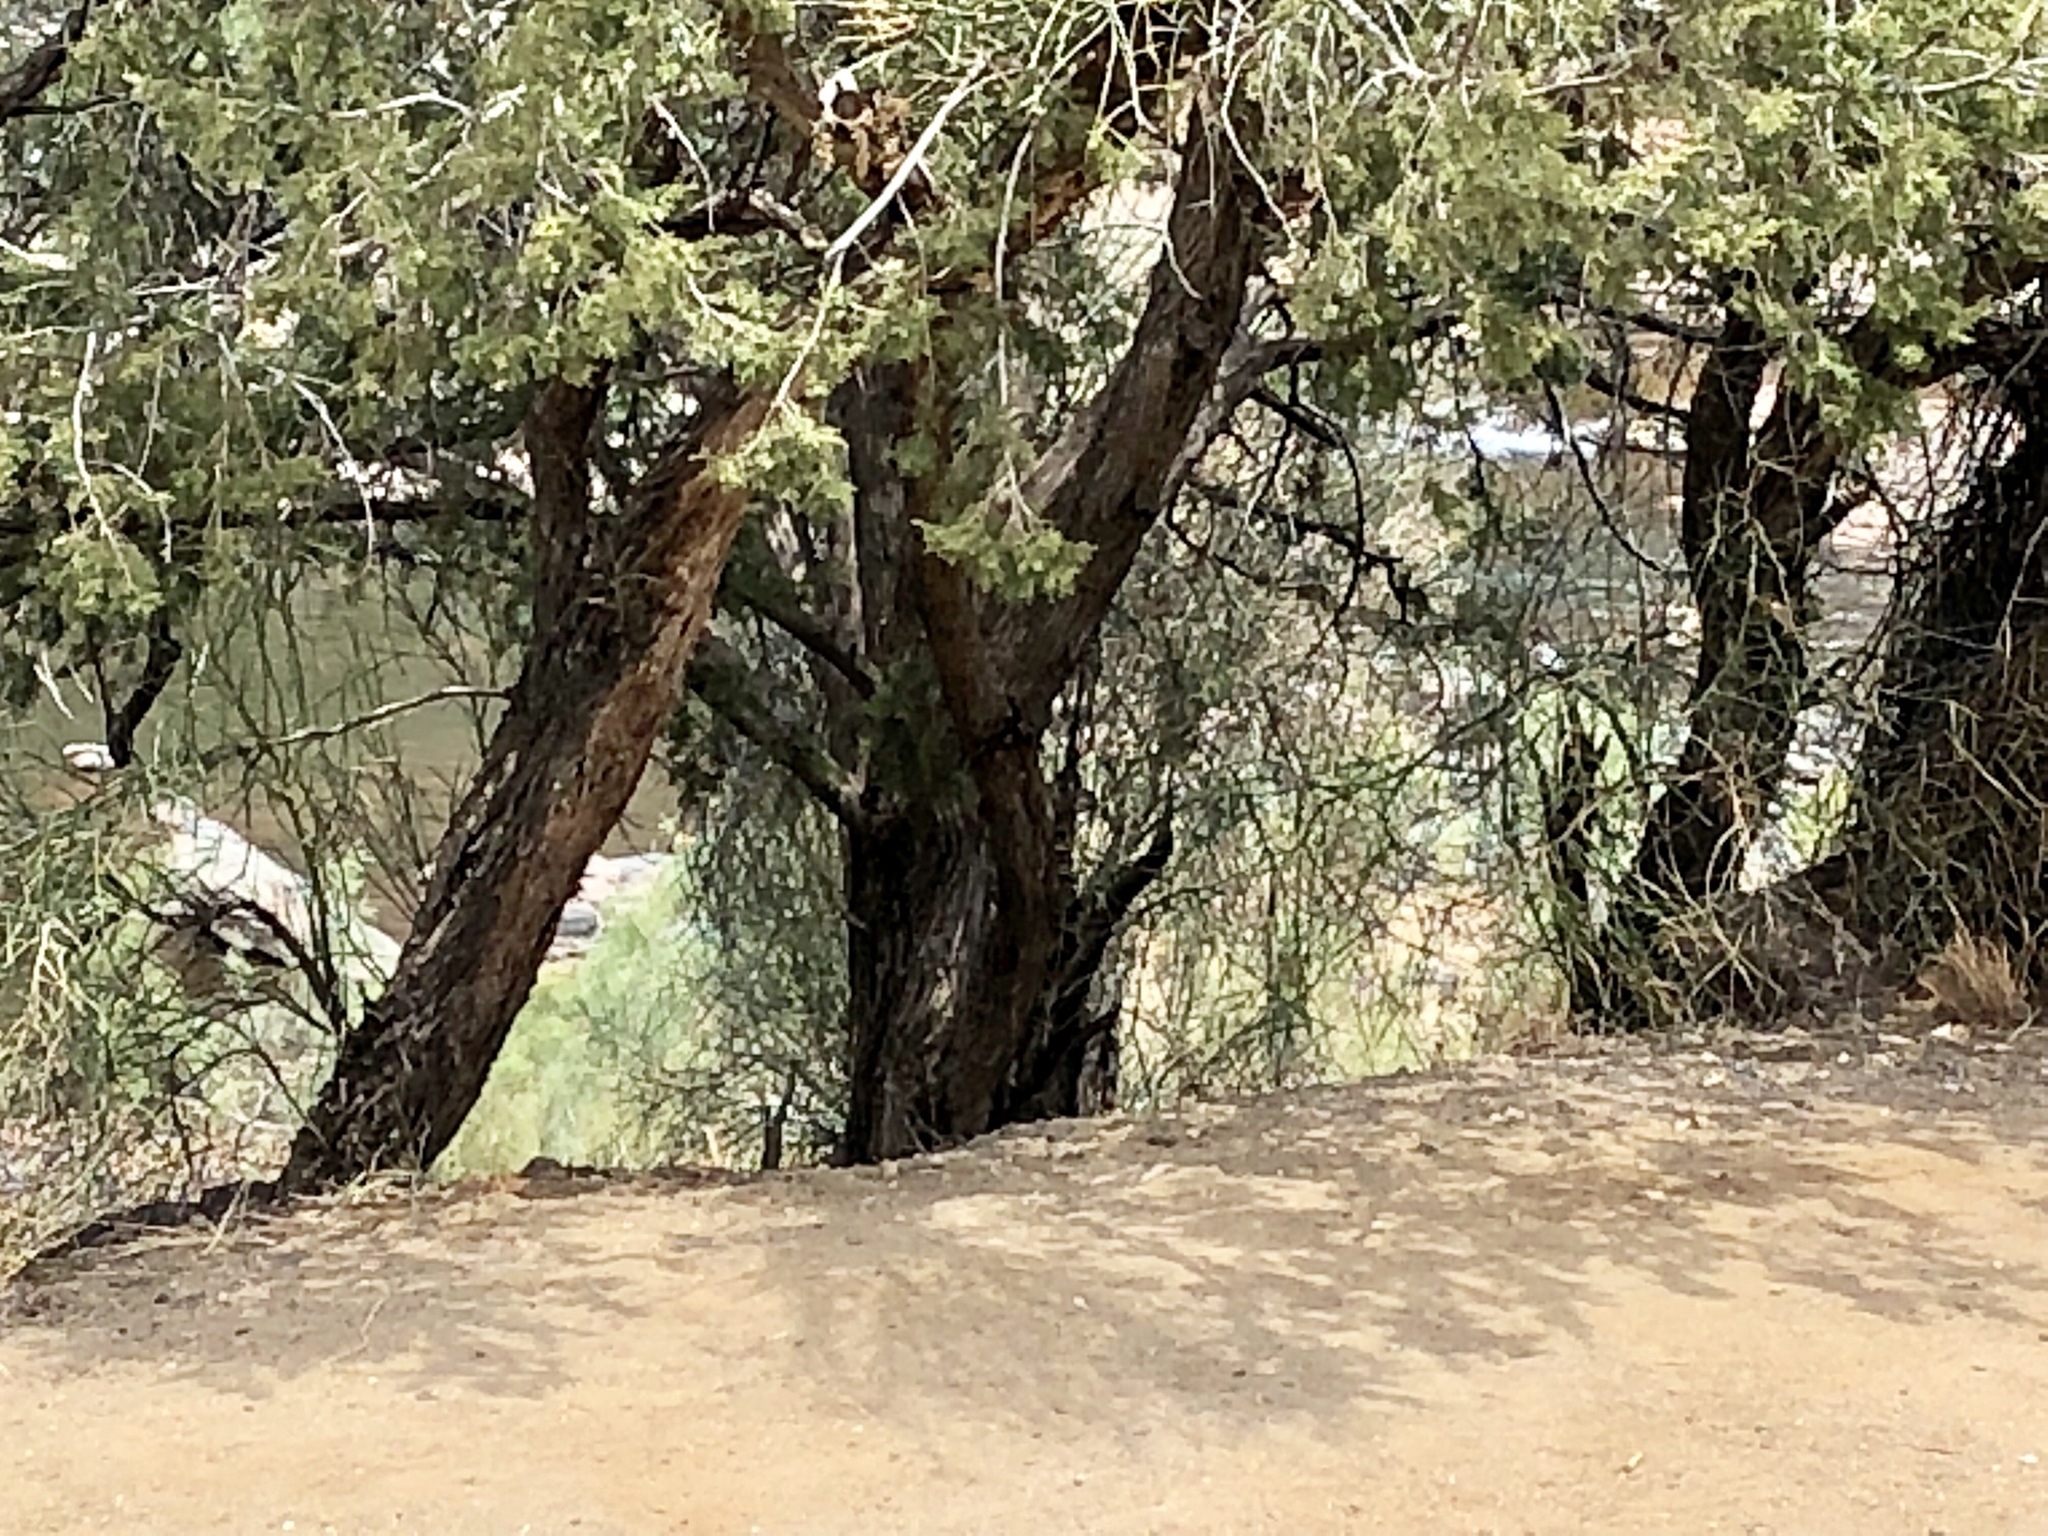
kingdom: Plantae
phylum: Tracheophyta
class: Pinopsida
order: Pinales
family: Cupressaceae
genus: Juniperus
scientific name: Juniperus deppeana
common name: Alligator juniper
